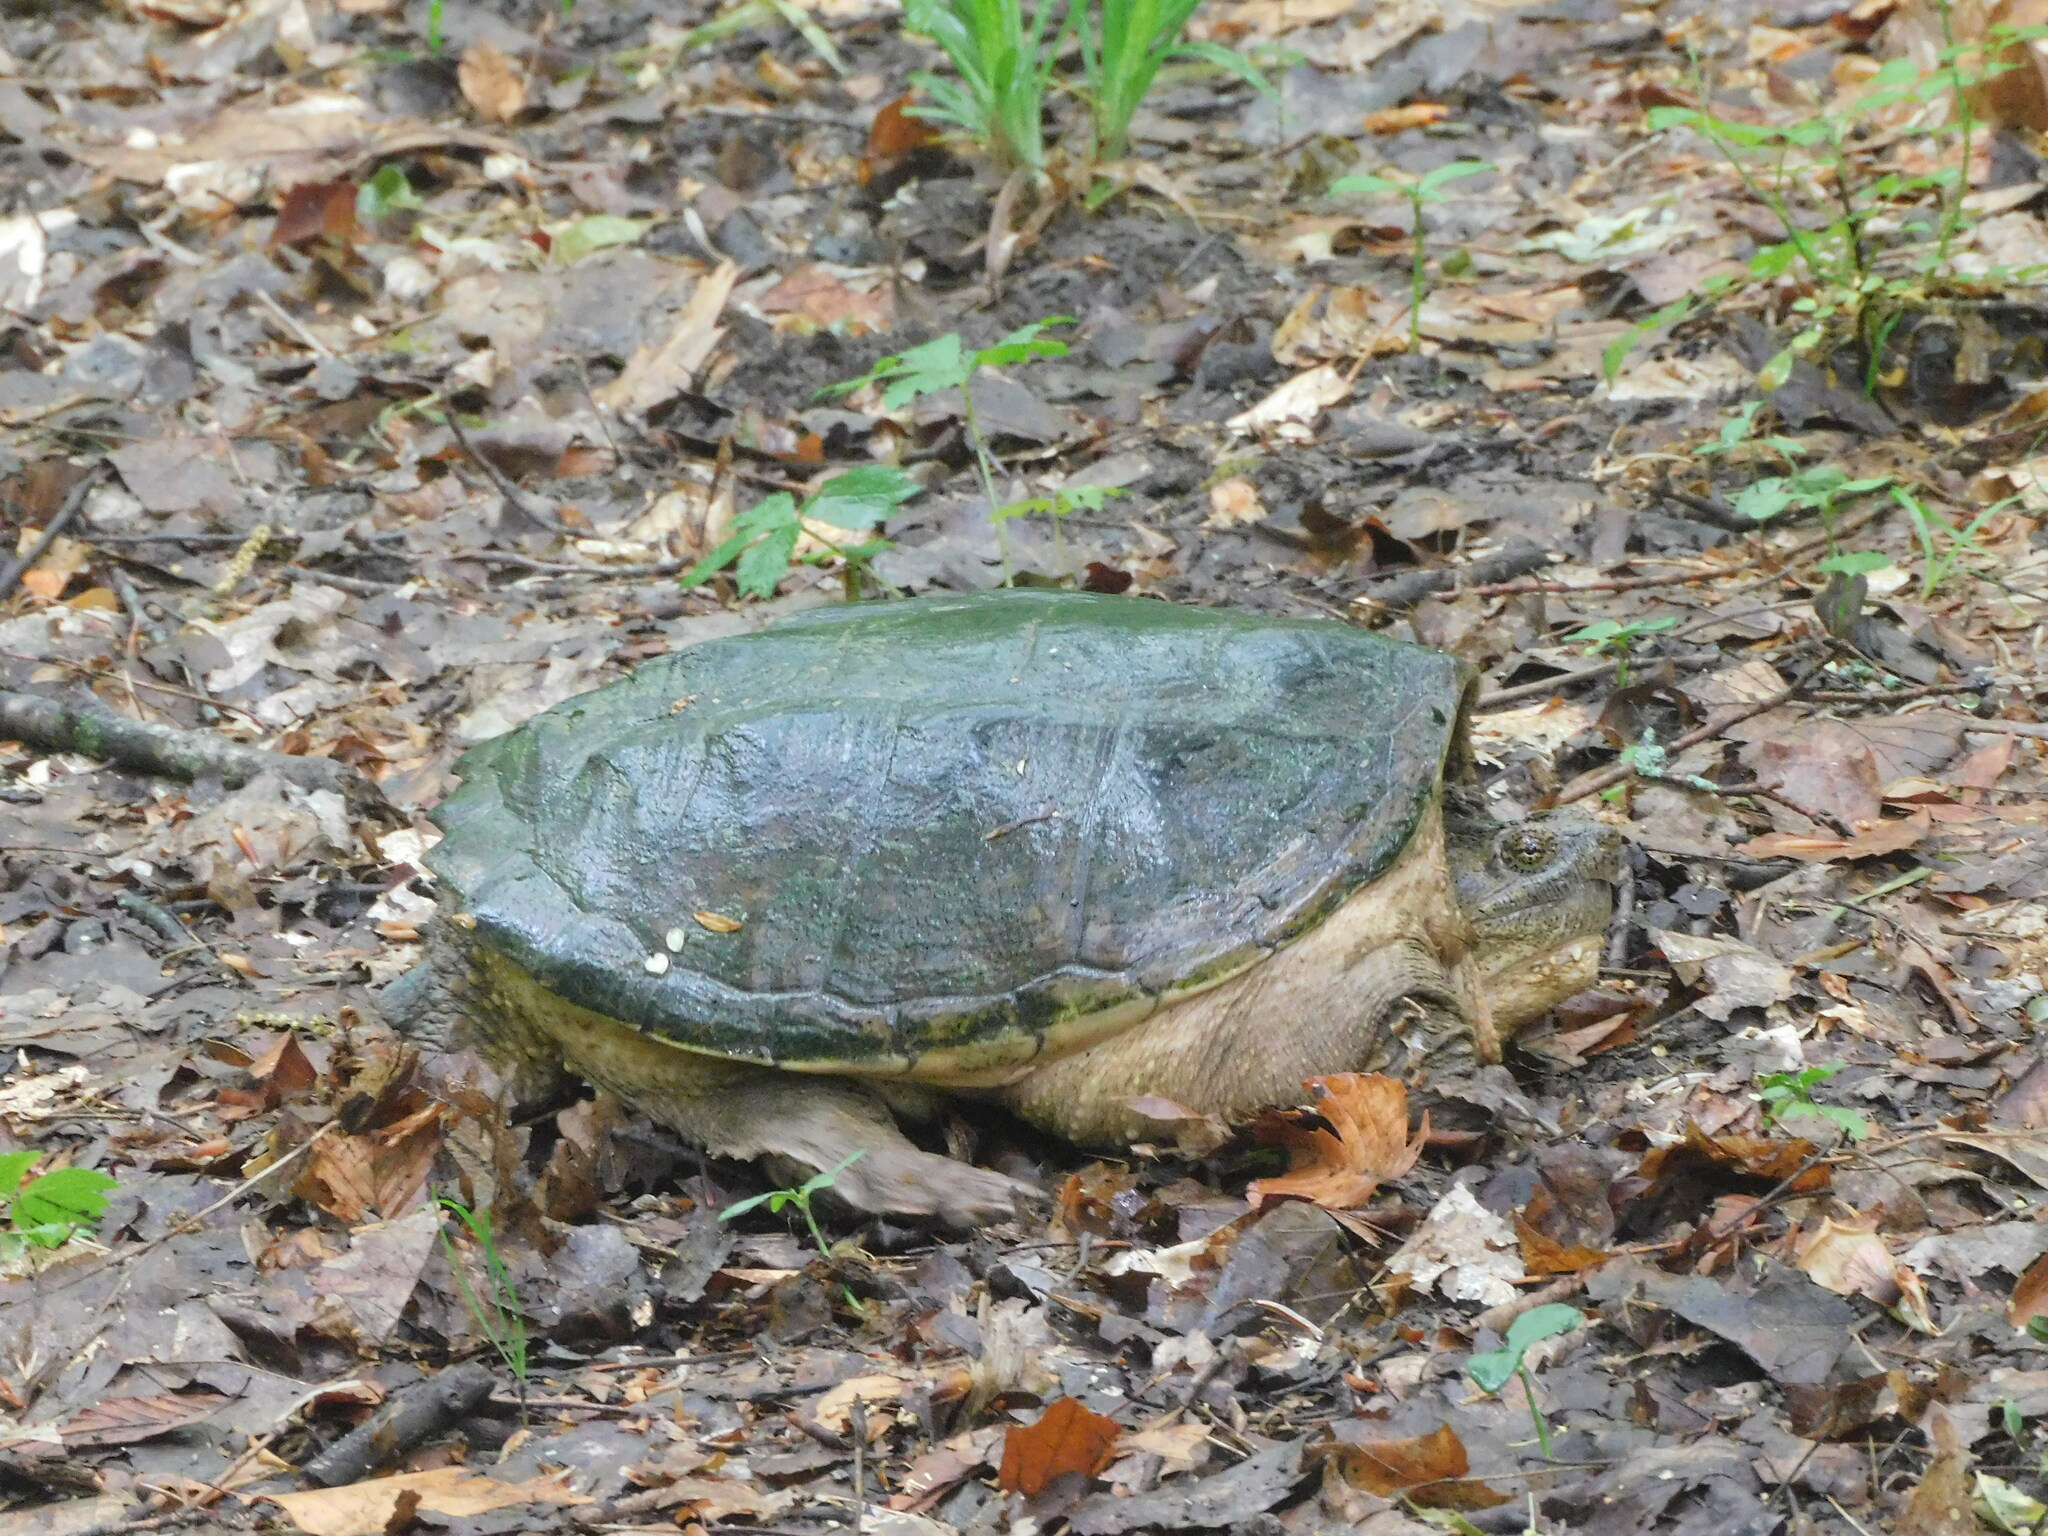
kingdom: Animalia
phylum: Chordata
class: Testudines
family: Chelydridae
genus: Chelydra
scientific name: Chelydra serpentina
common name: Common snapping turtle
